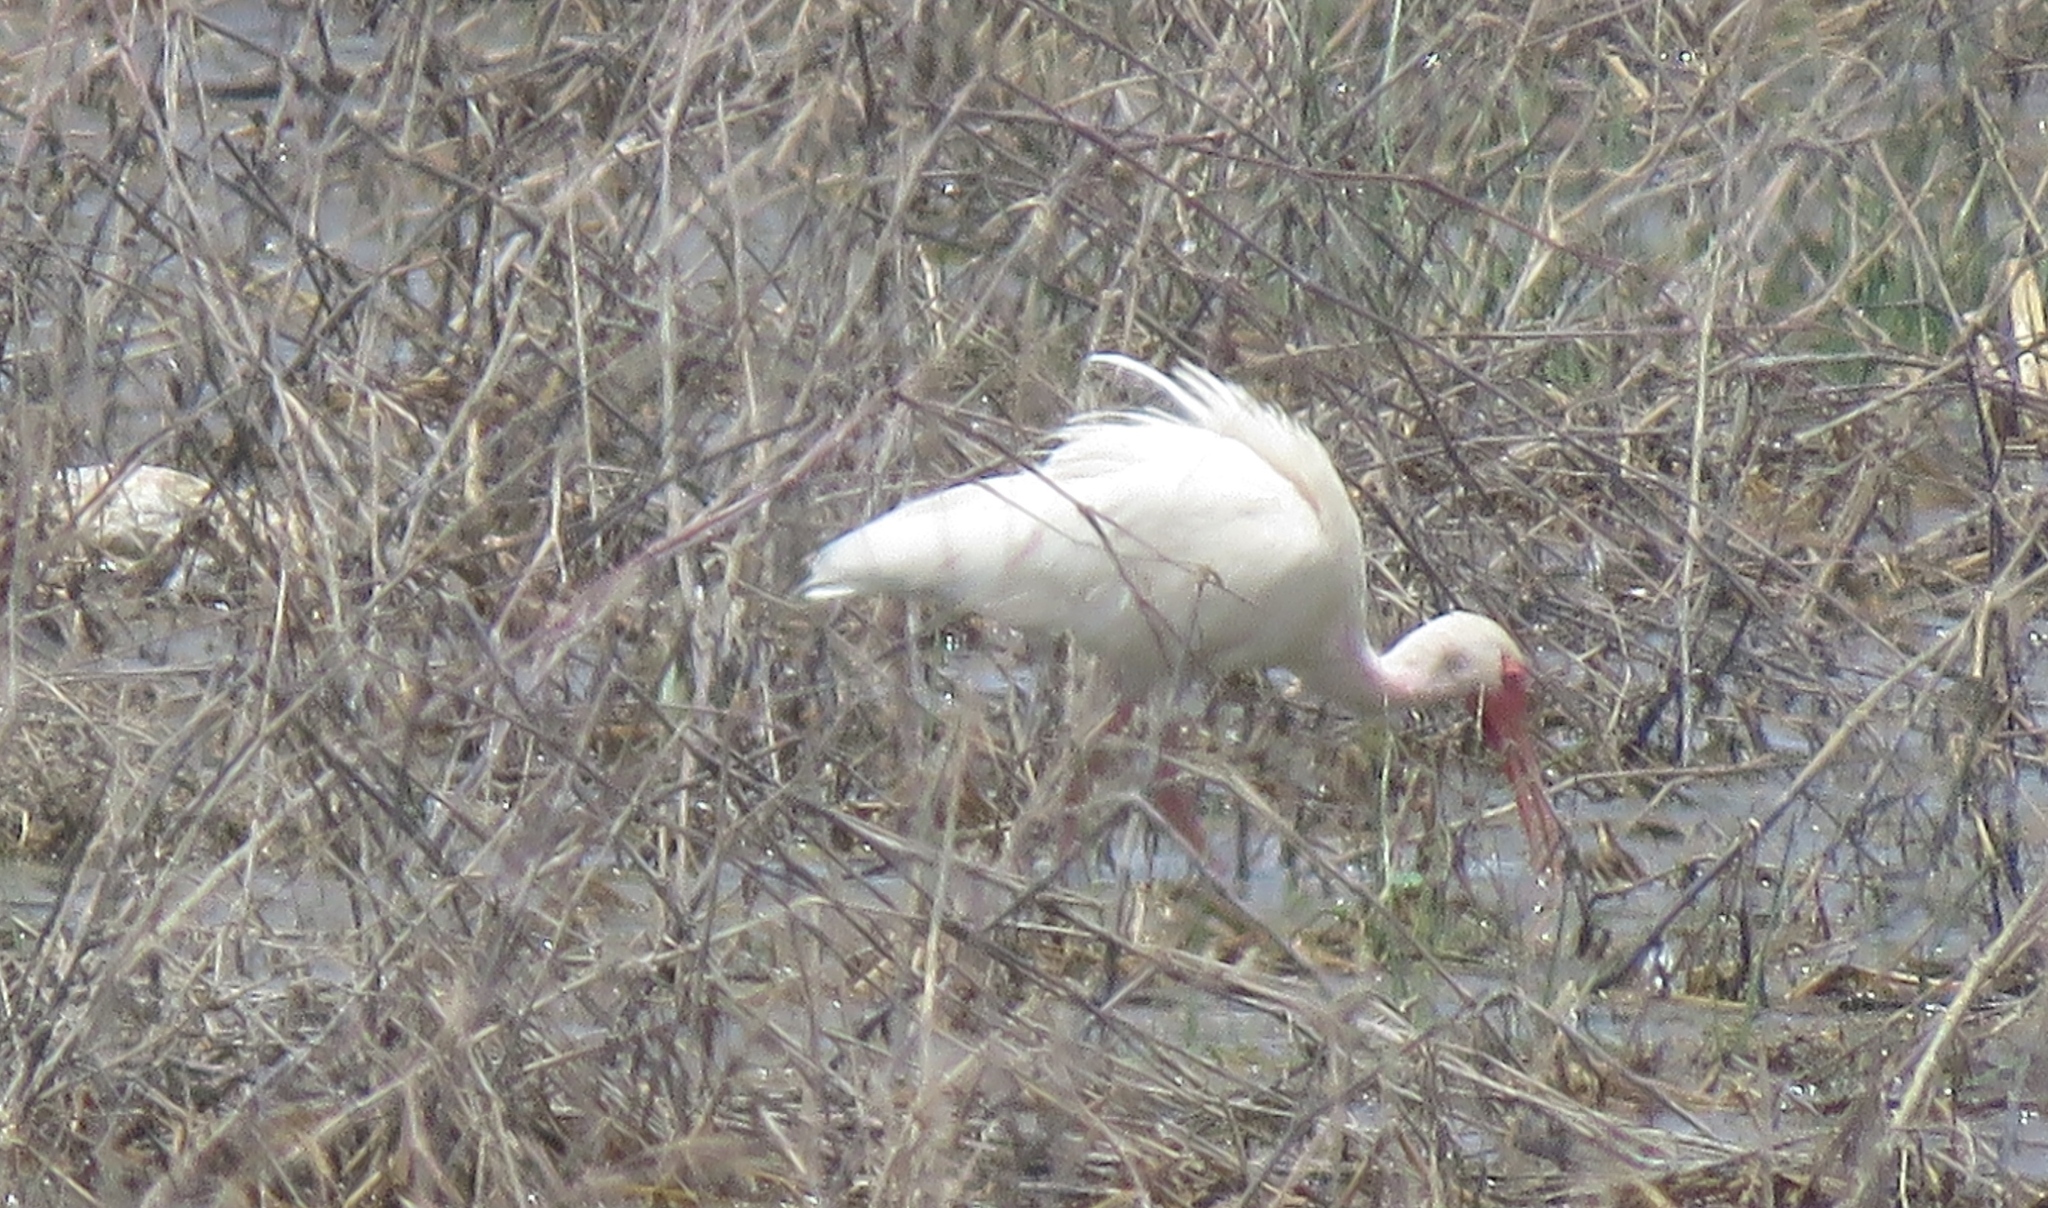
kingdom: Animalia
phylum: Chordata
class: Aves
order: Pelecaniformes
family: Threskiornithidae
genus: Eudocimus
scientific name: Eudocimus albus
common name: White ibis
